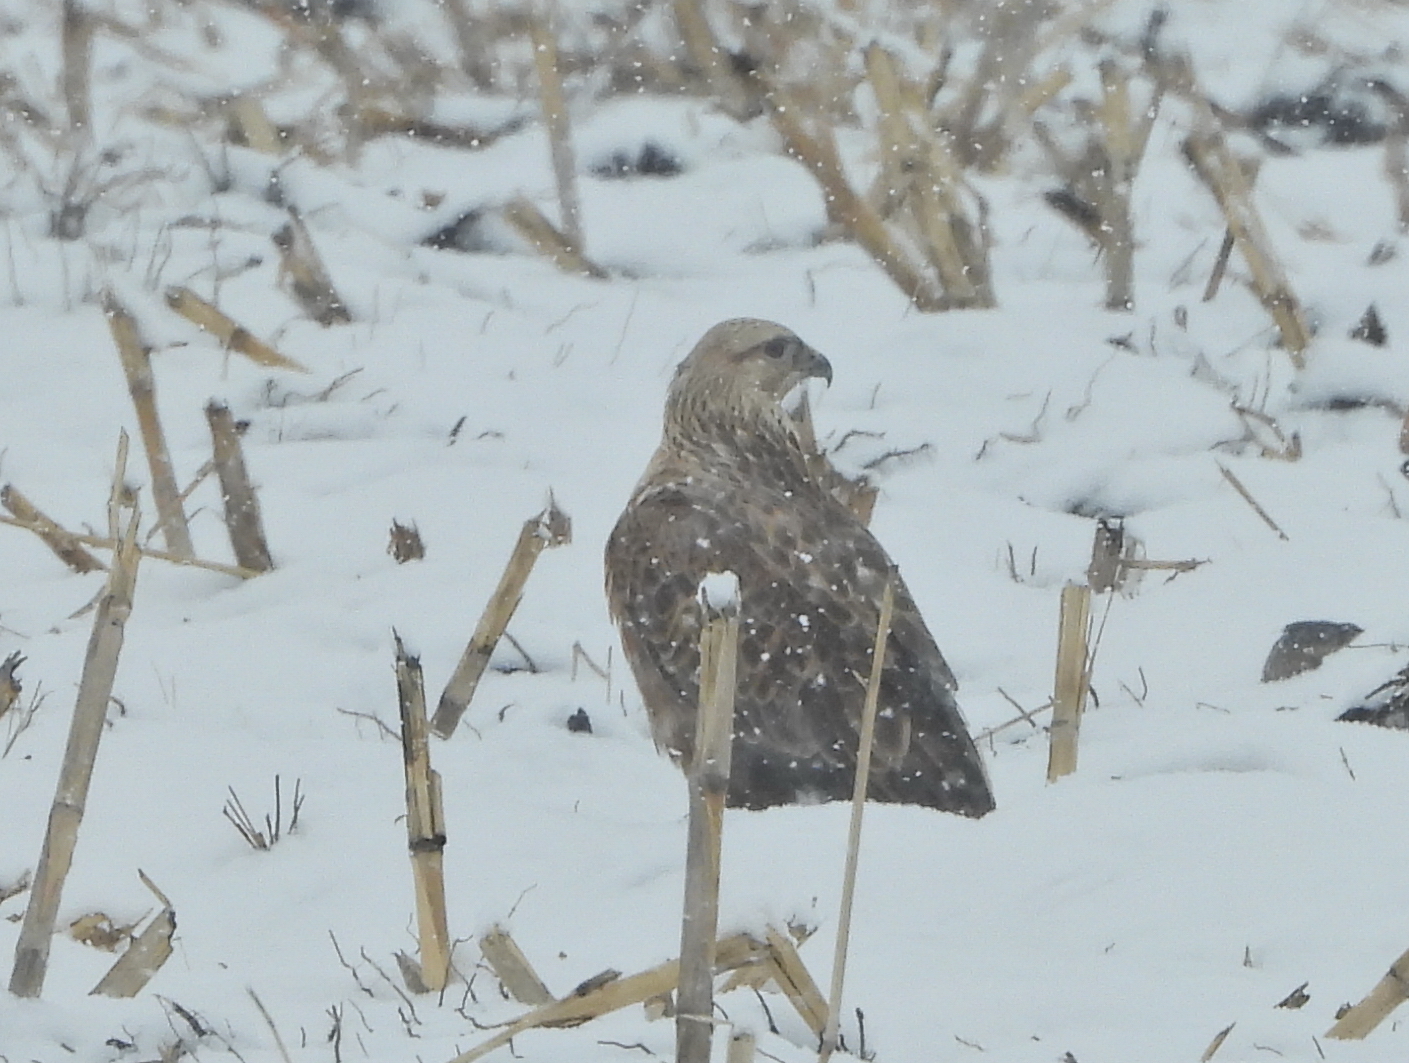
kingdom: Animalia
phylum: Chordata
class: Aves
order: Accipitriformes
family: Accipitridae
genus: Buteo
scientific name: Buteo rufinus
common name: Long-legged buzzard
